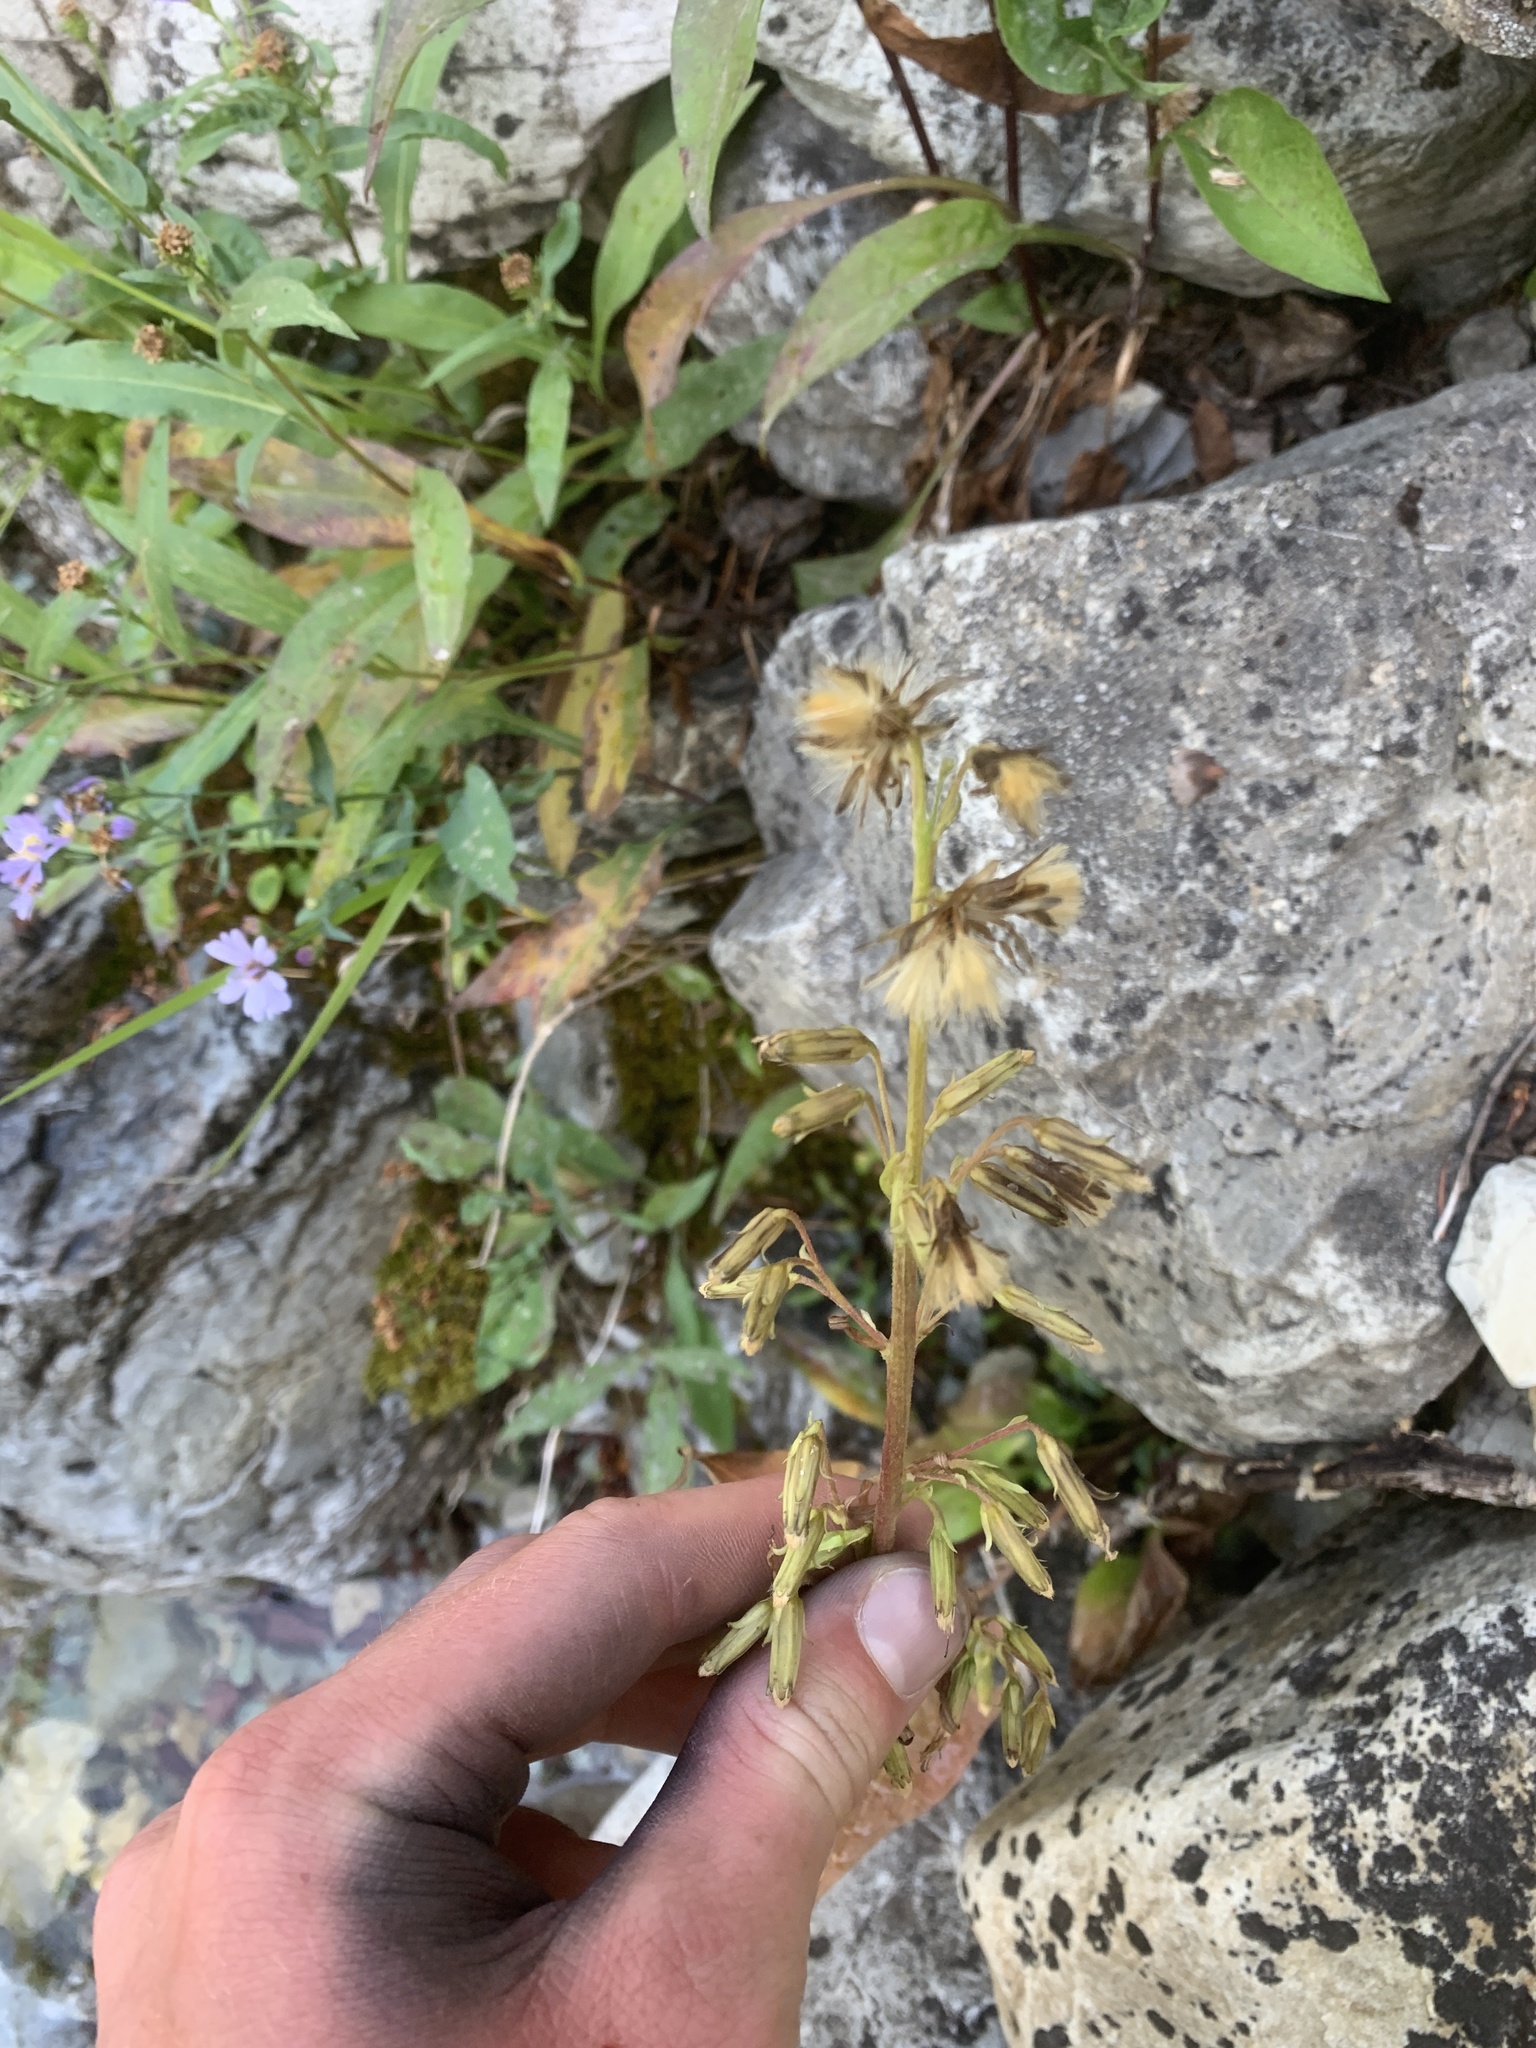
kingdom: Plantae
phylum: Tracheophyta
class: Magnoliopsida
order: Asterales
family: Asteraceae
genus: Nabalus
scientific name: Nabalus sagittatus
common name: Arrowleaf snakeroot
